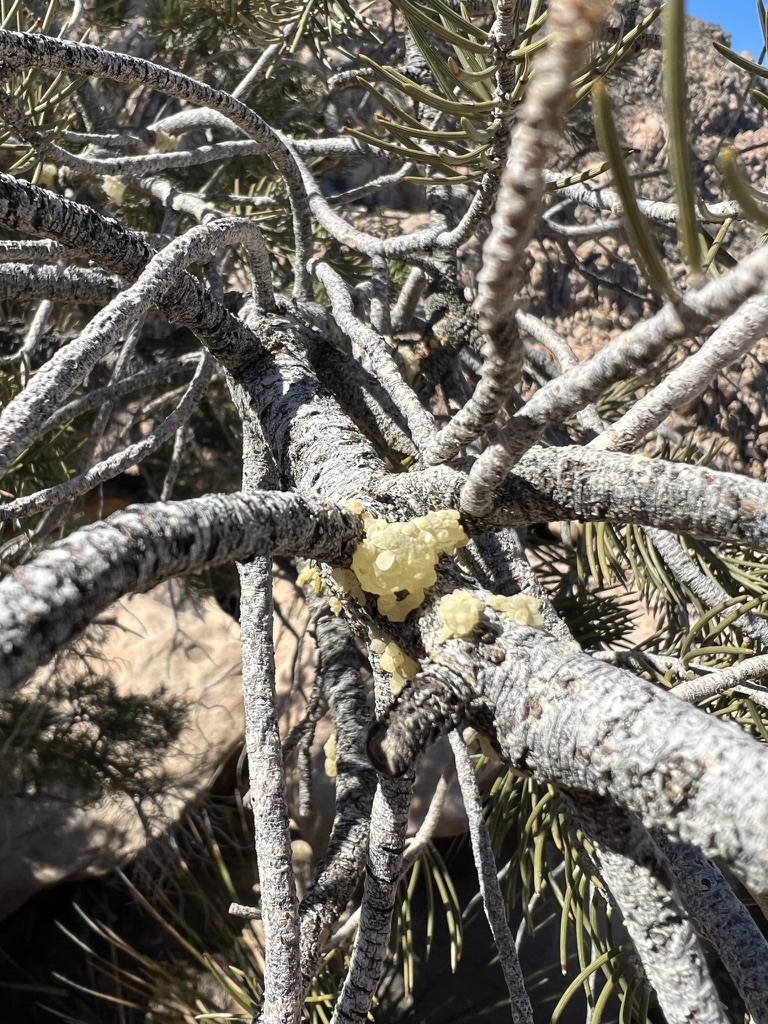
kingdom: Plantae
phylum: Tracheophyta
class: Pinopsida
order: Pinales
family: Pinaceae
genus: Pinus
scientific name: Pinus monophylla
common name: One-leaved nut pine
